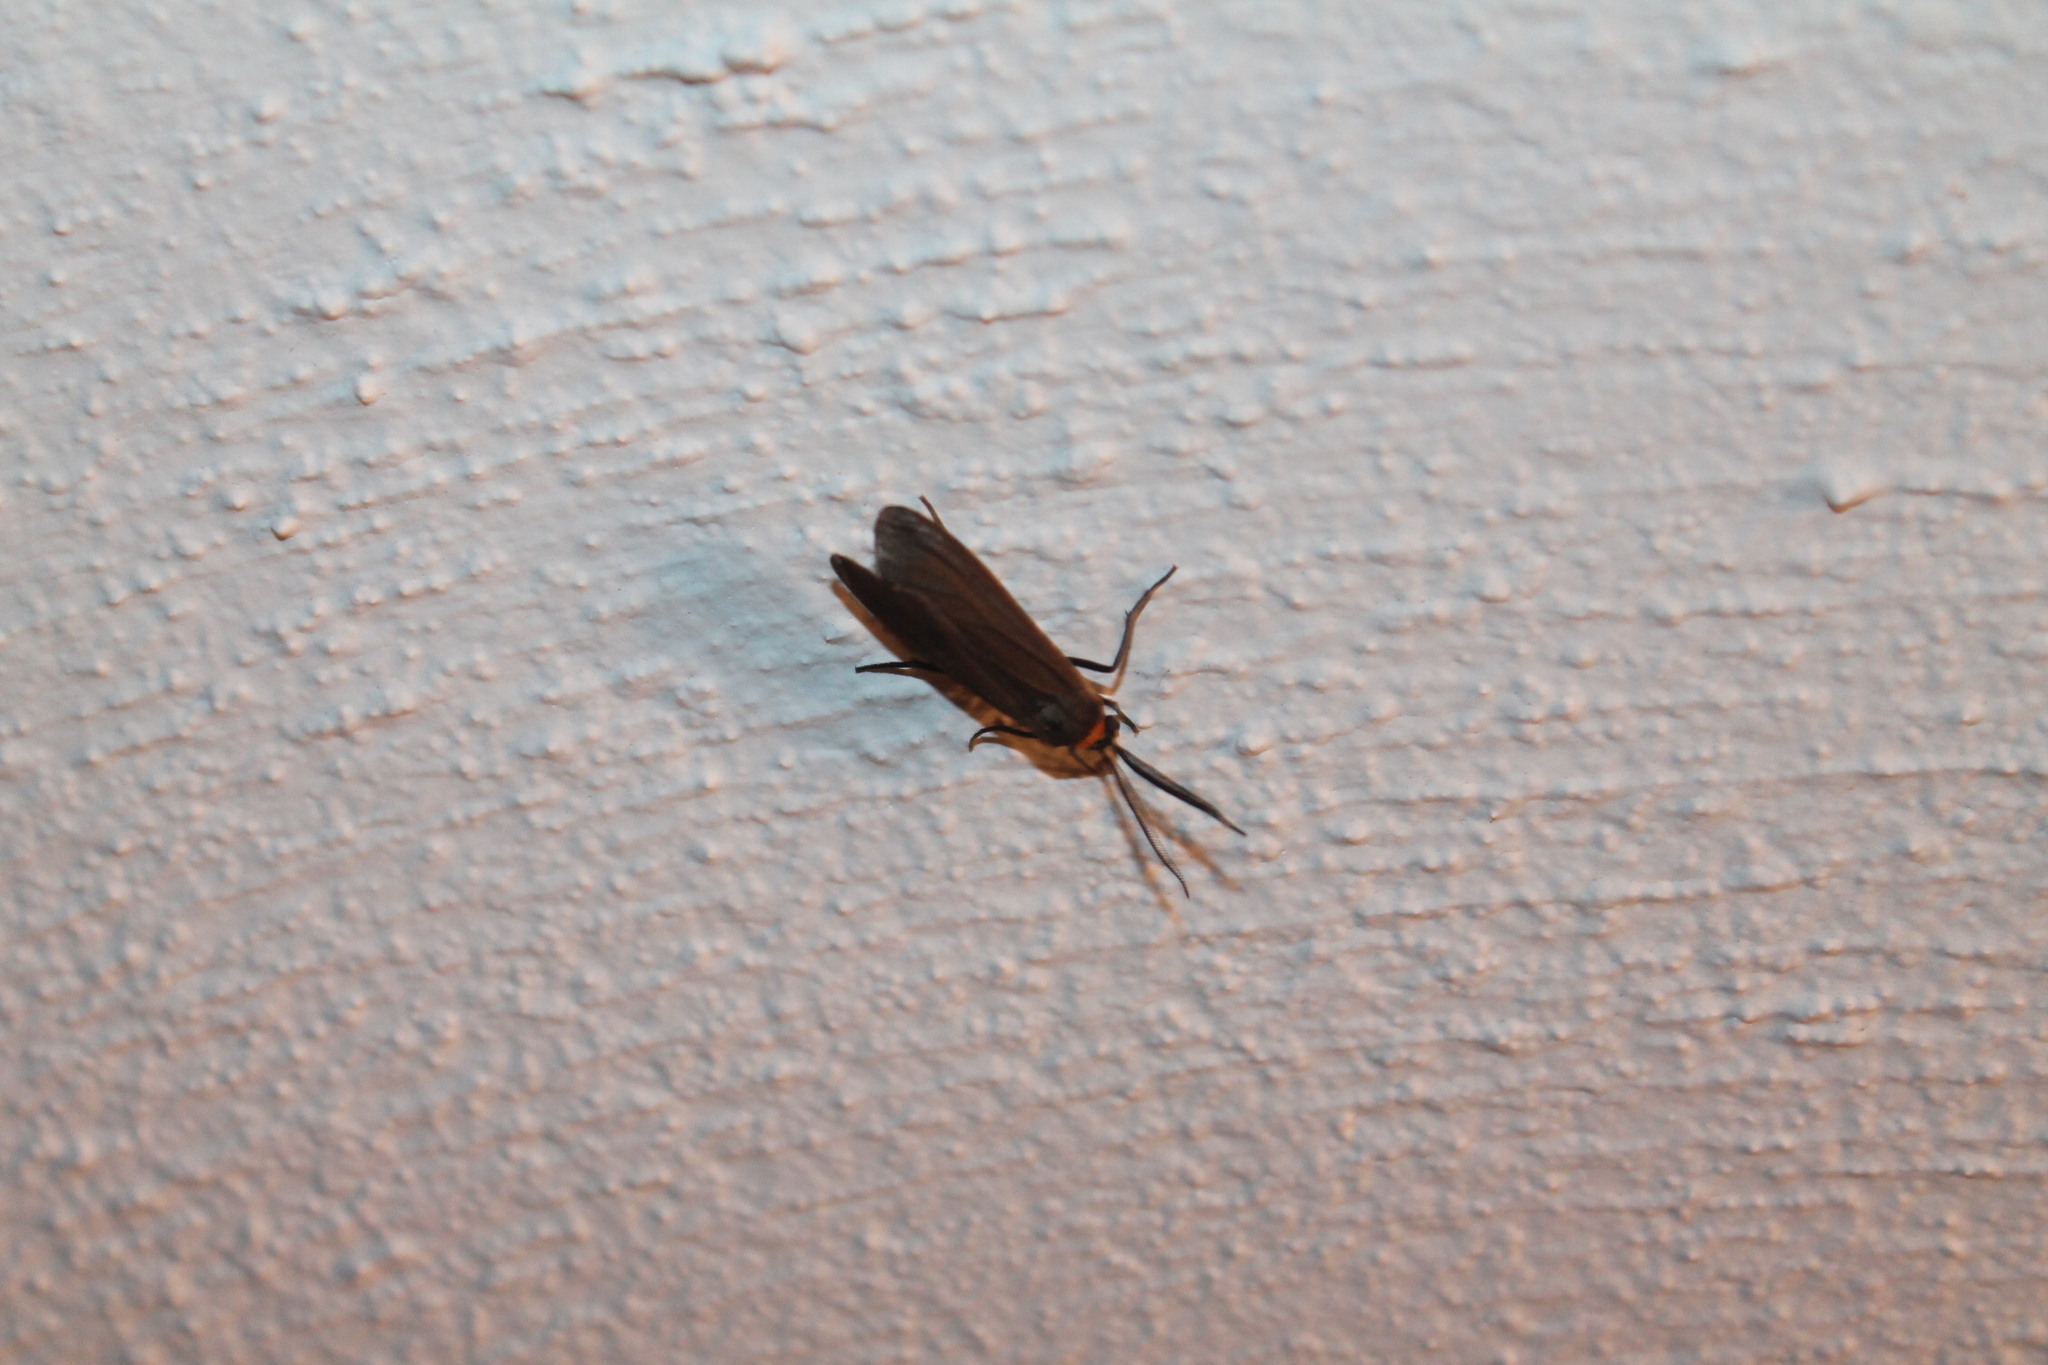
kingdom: Animalia
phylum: Arthropoda
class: Insecta
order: Lepidoptera
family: Erebidae
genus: Cisseps
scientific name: Cisseps fulvicollis
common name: Yellow-collared scape moth
